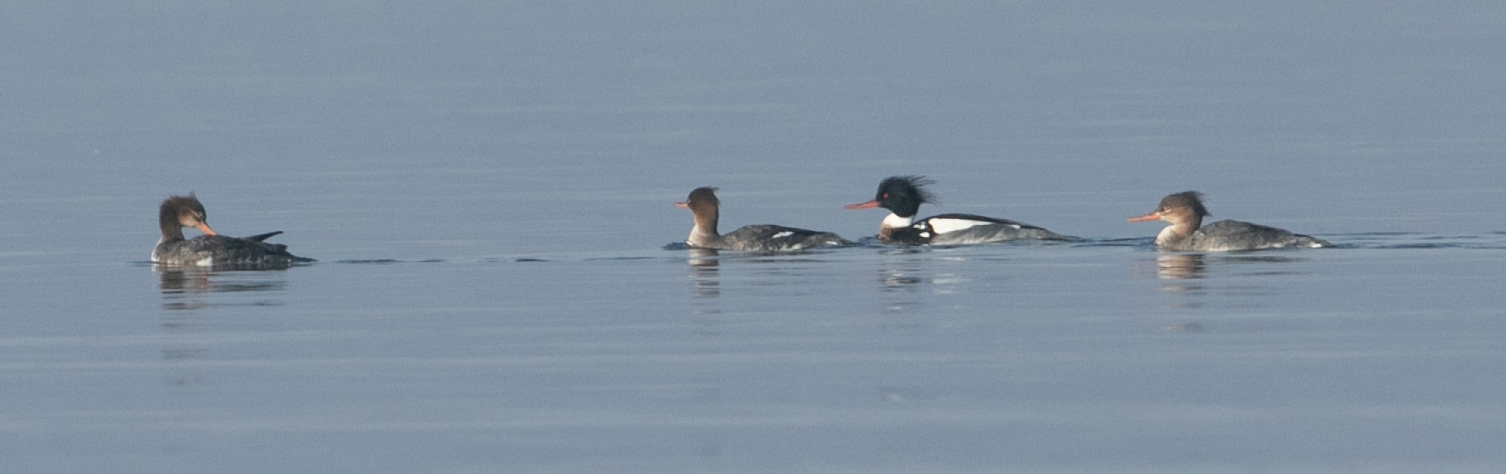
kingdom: Animalia
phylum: Chordata
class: Aves
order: Anseriformes
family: Anatidae
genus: Mergus
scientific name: Mergus serrator
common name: Red-breasted merganser
